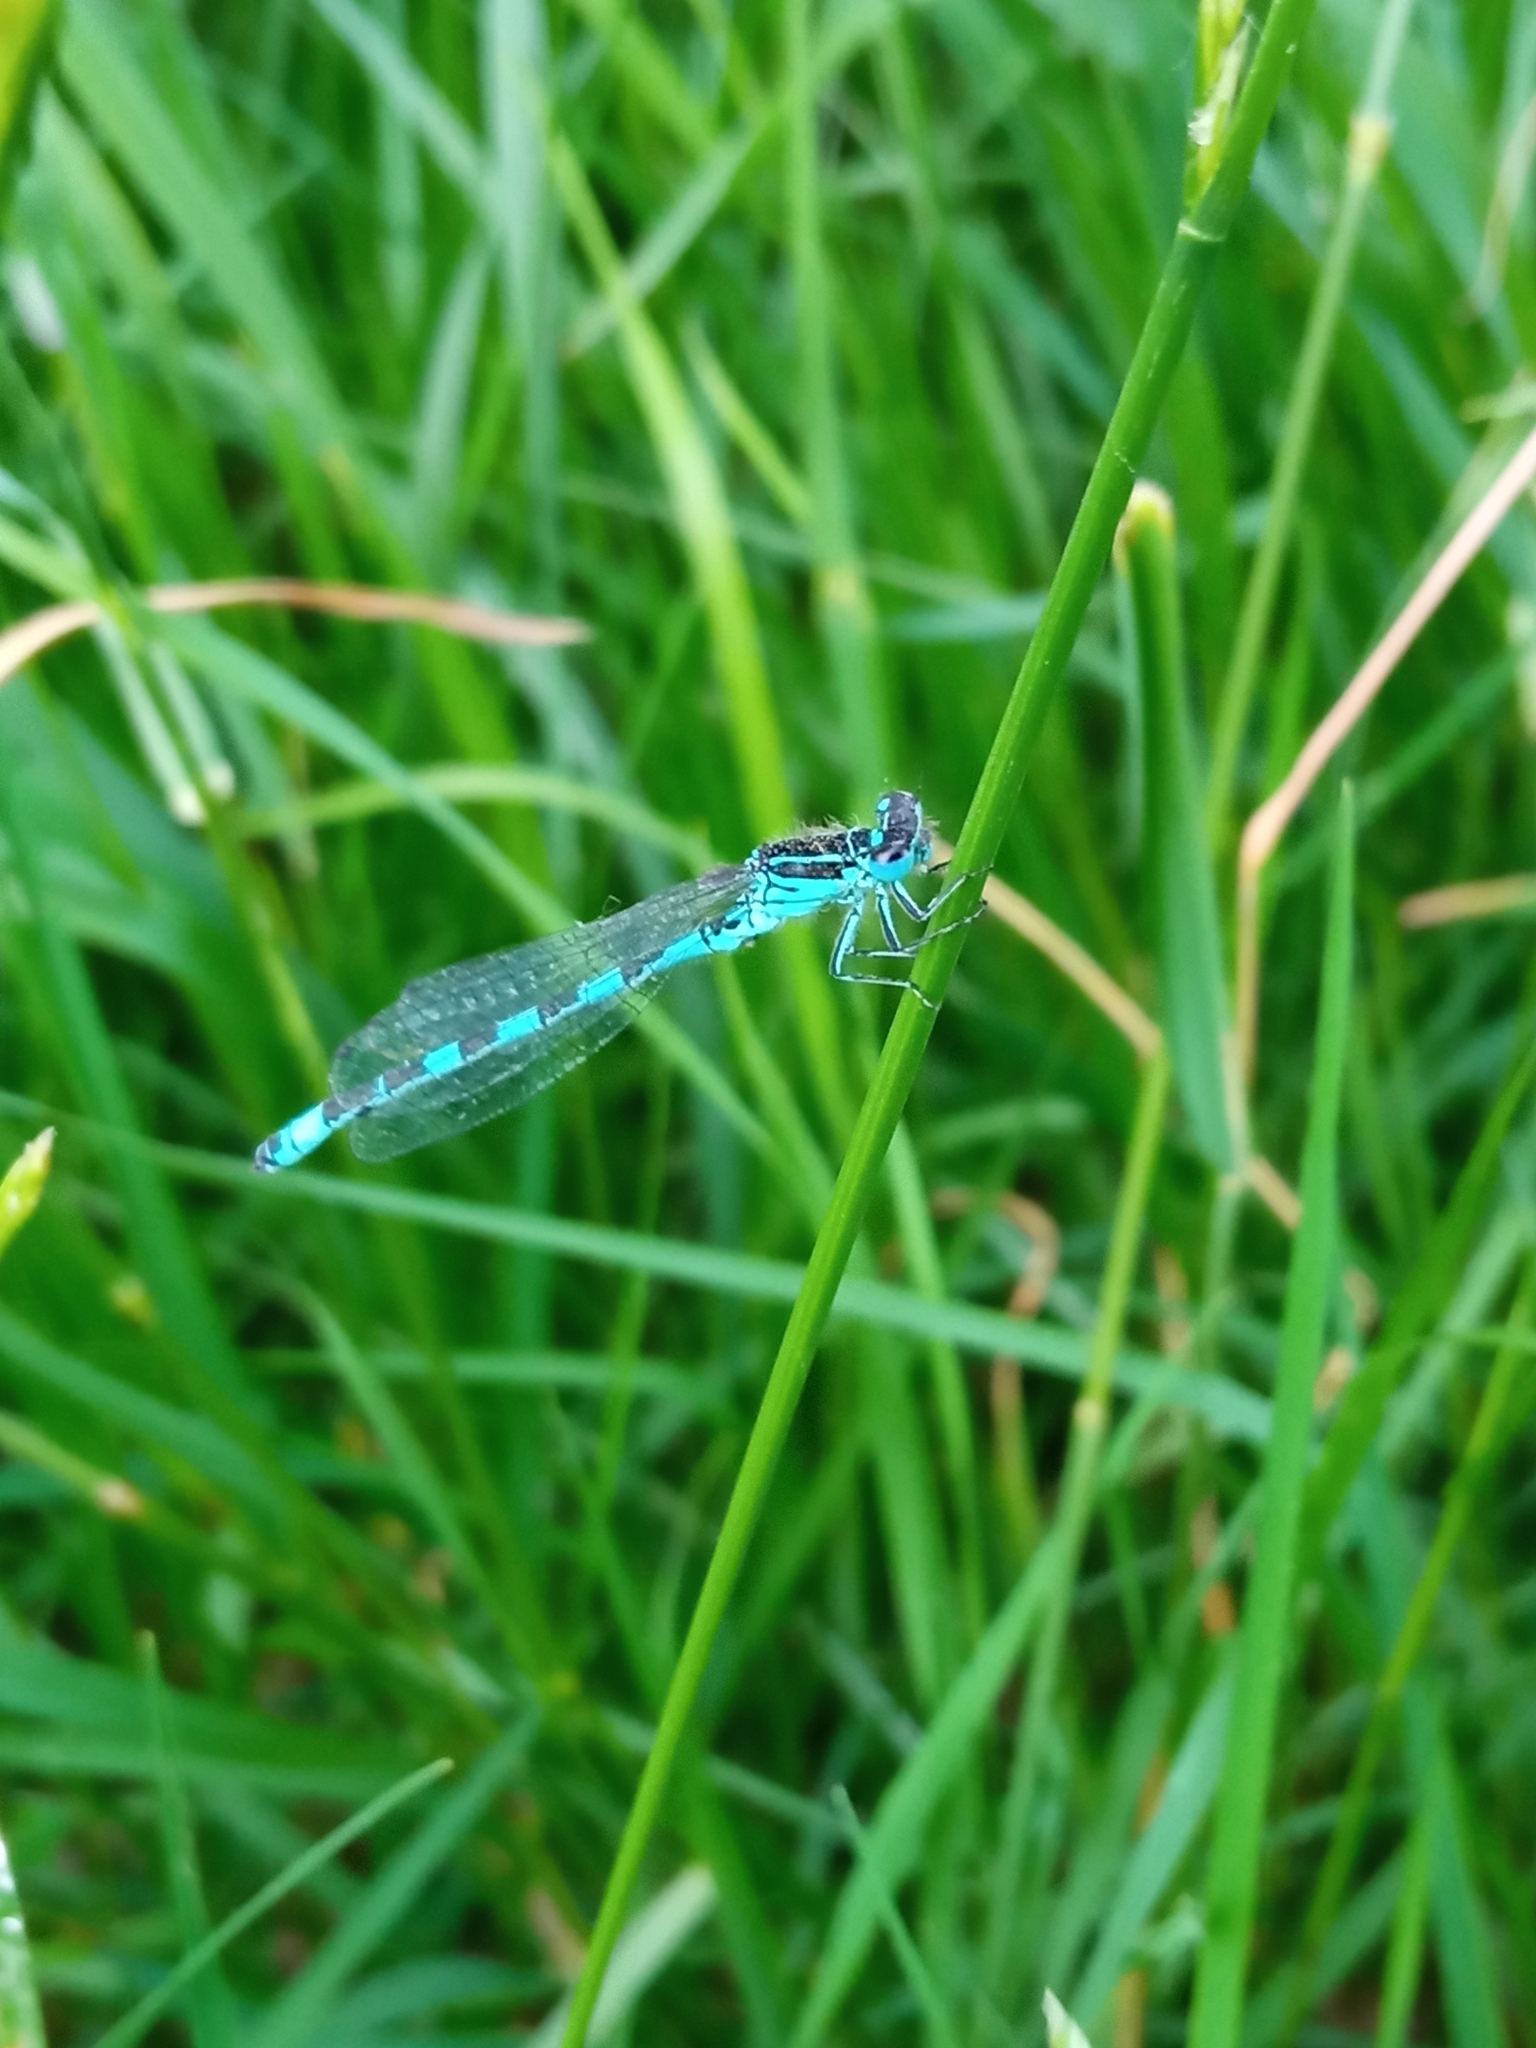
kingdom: Animalia
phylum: Arthropoda
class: Insecta
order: Odonata
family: Coenagrionidae
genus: Coenagrion
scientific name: Coenagrion mercuriale
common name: Southern damselfly
